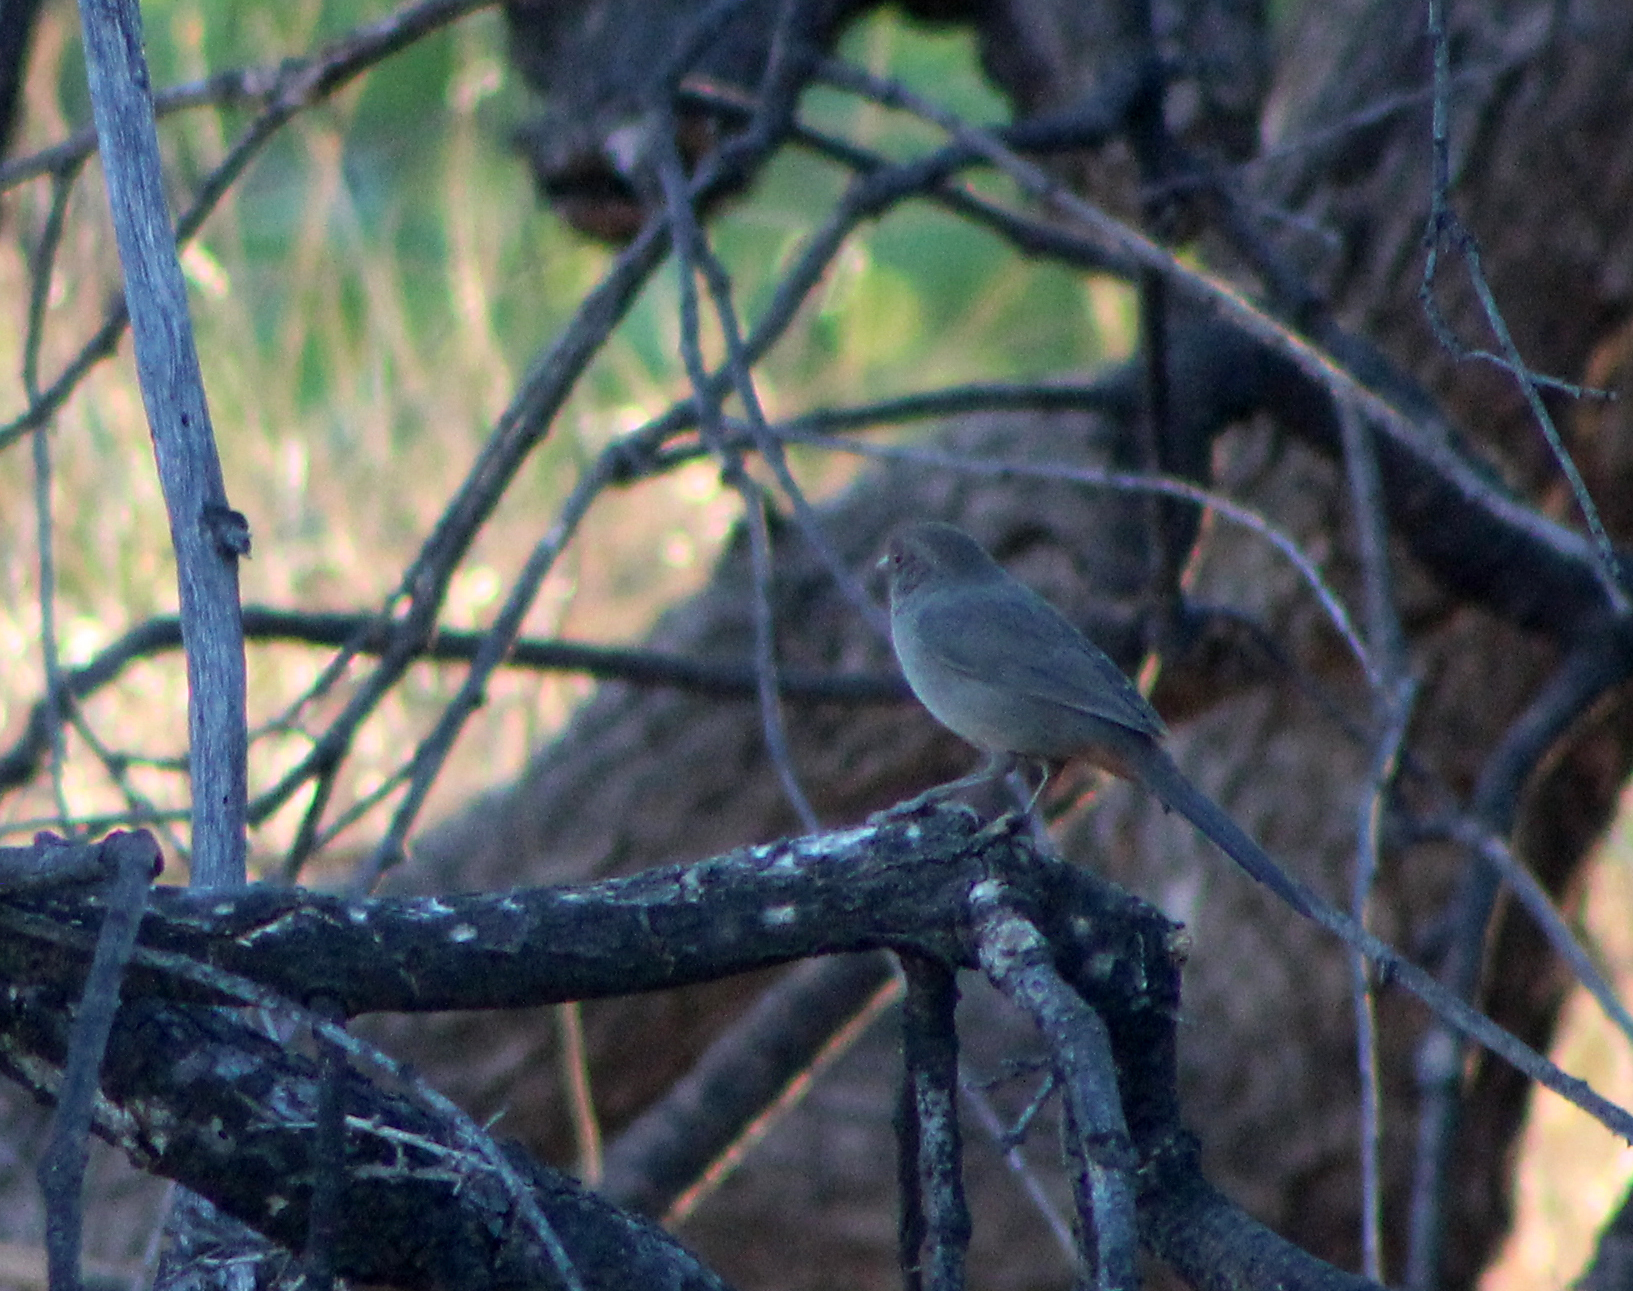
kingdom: Animalia
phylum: Chordata
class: Aves
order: Passeriformes
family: Passerellidae
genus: Melozone
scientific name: Melozone crissalis
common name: California towhee
